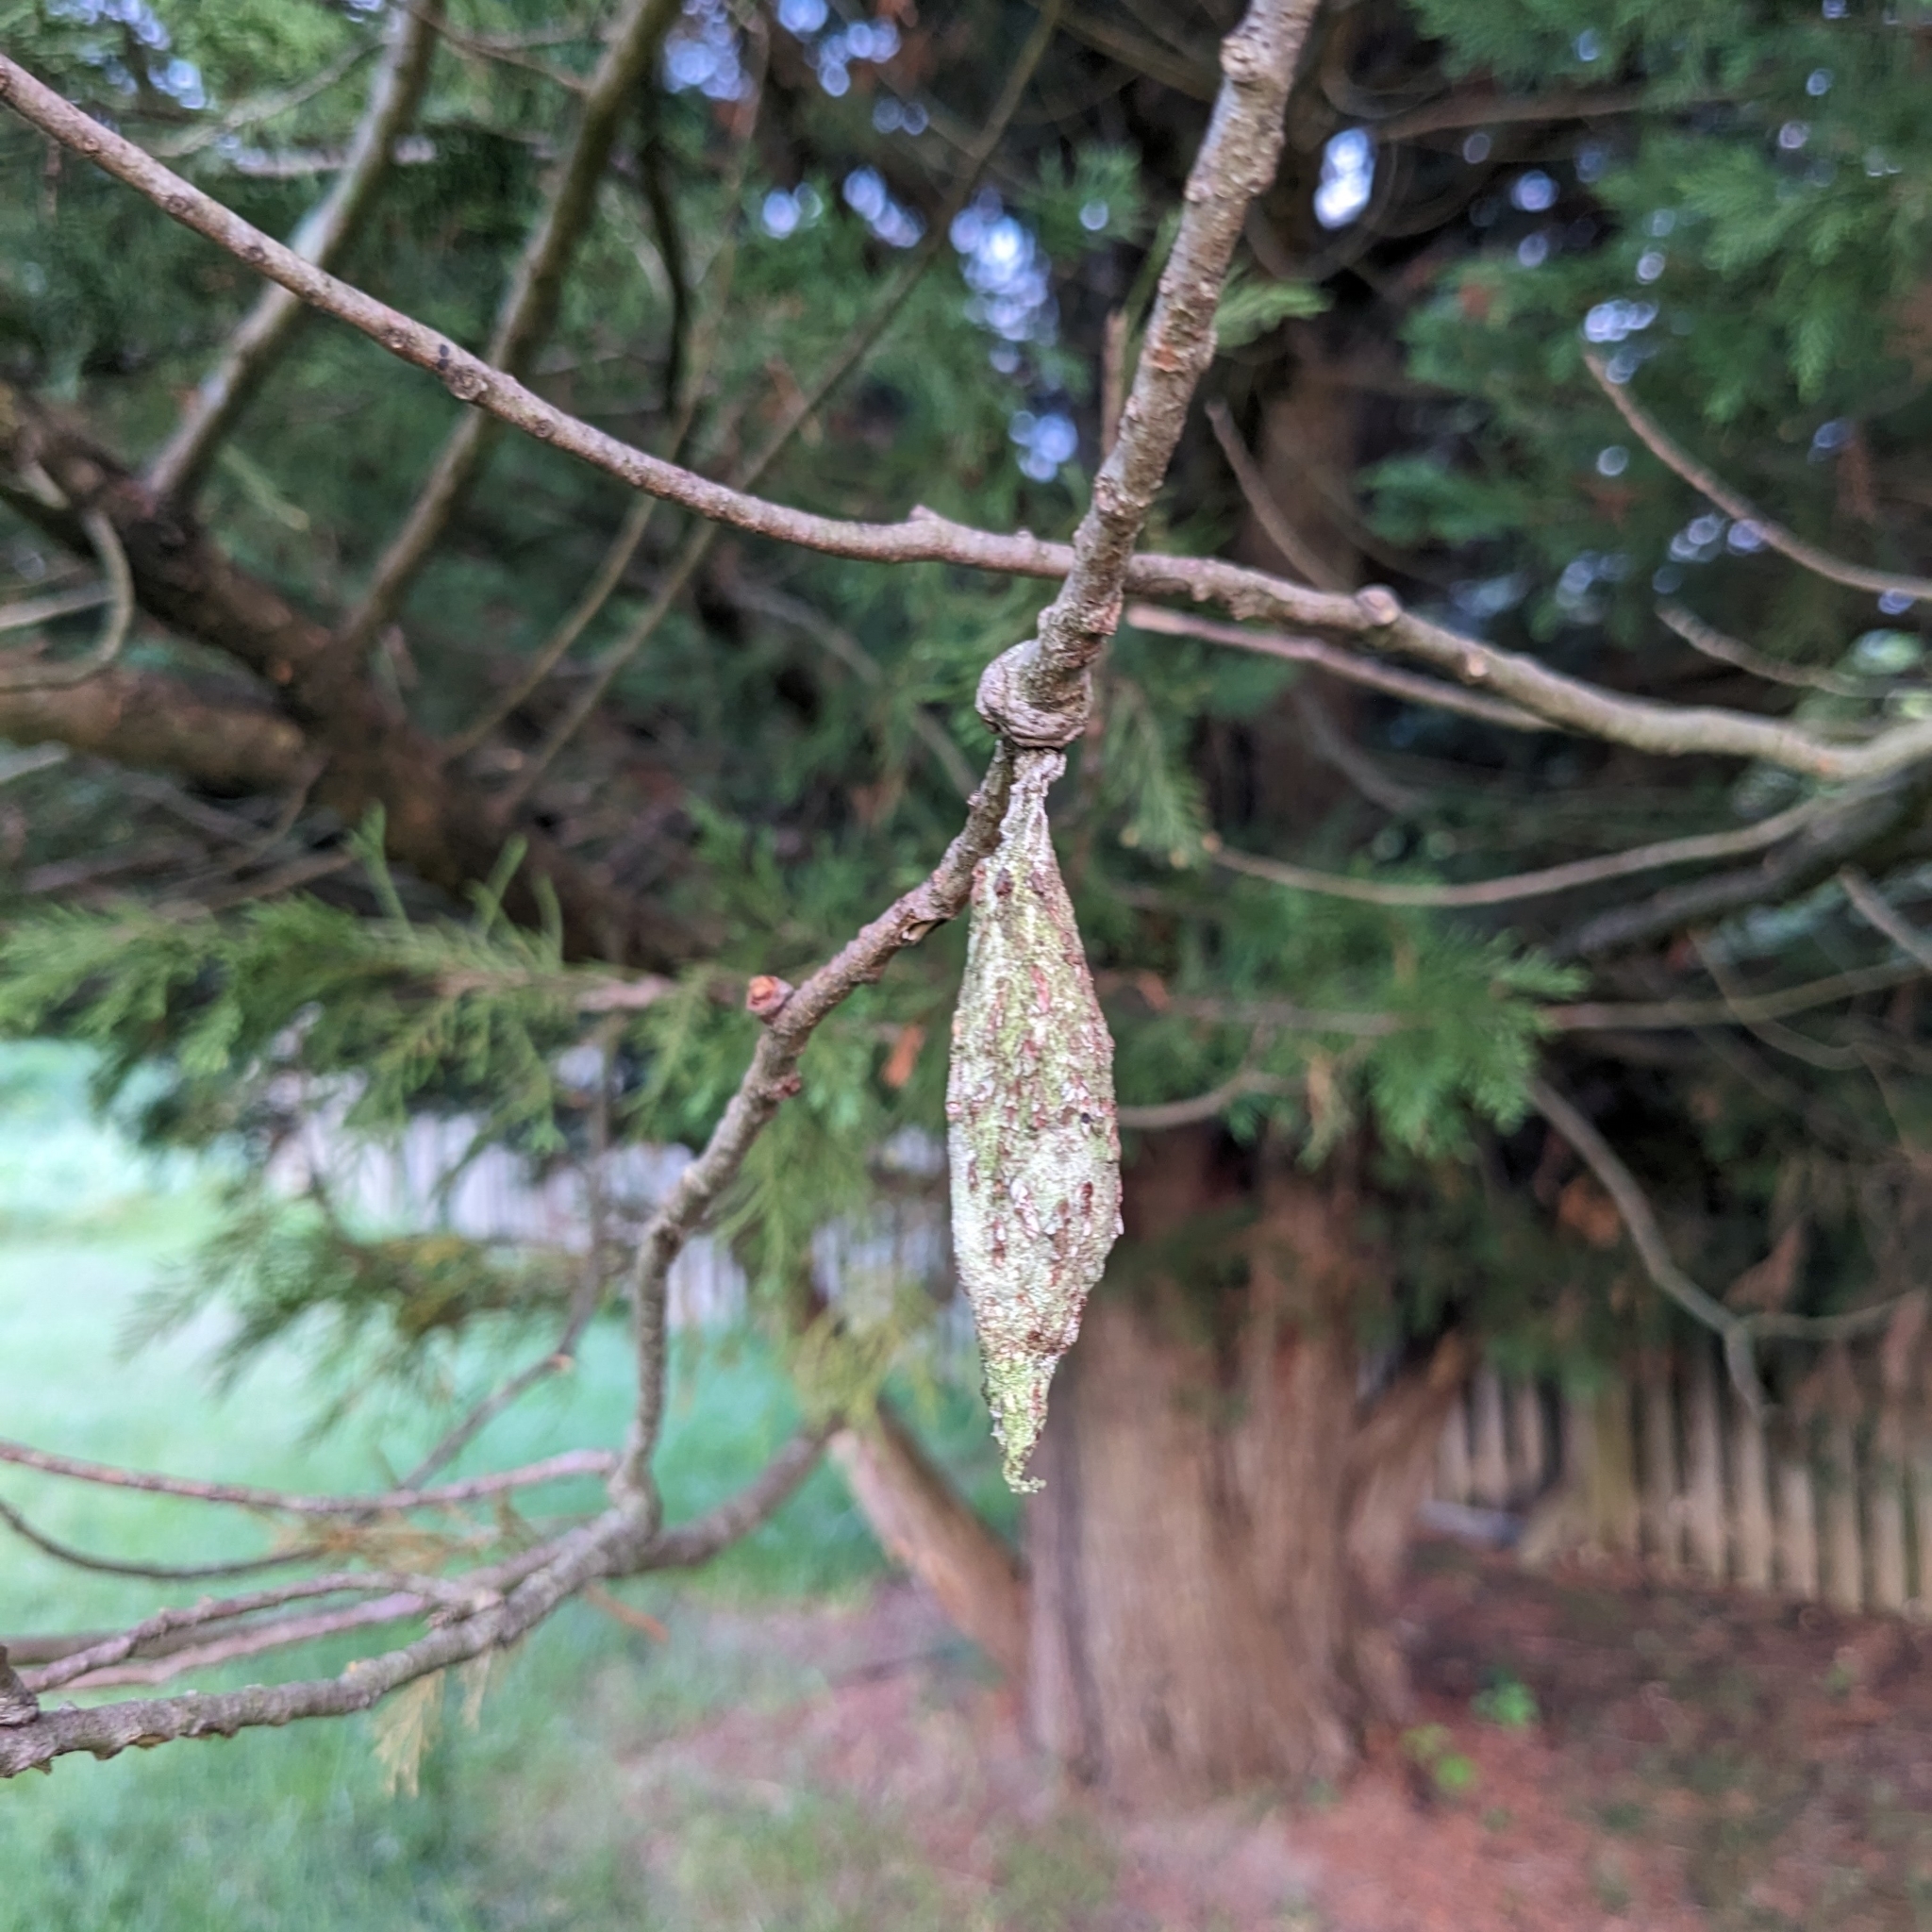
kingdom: Animalia
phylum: Arthropoda
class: Insecta
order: Lepidoptera
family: Psychidae
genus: Thyridopteryx
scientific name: Thyridopteryx ephemeraeformis
